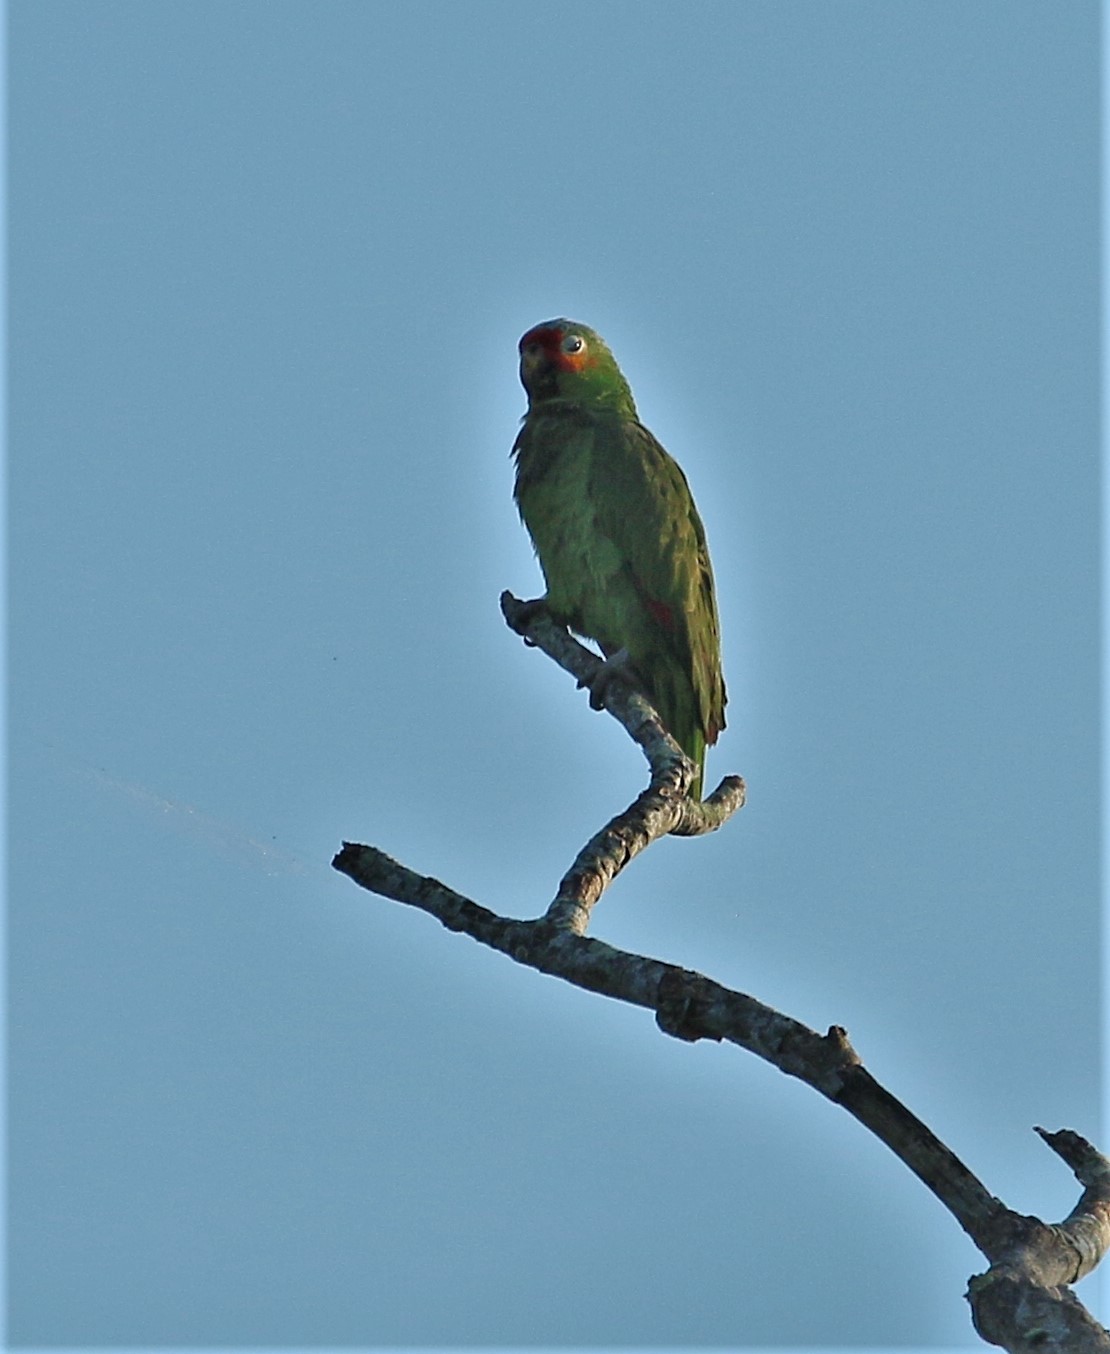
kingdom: Animalia
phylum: Chordata
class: Aves
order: Psittaciformes
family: Psittacidae
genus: Amazona
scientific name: Amazona autumnalis
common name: Red-lored amazon
